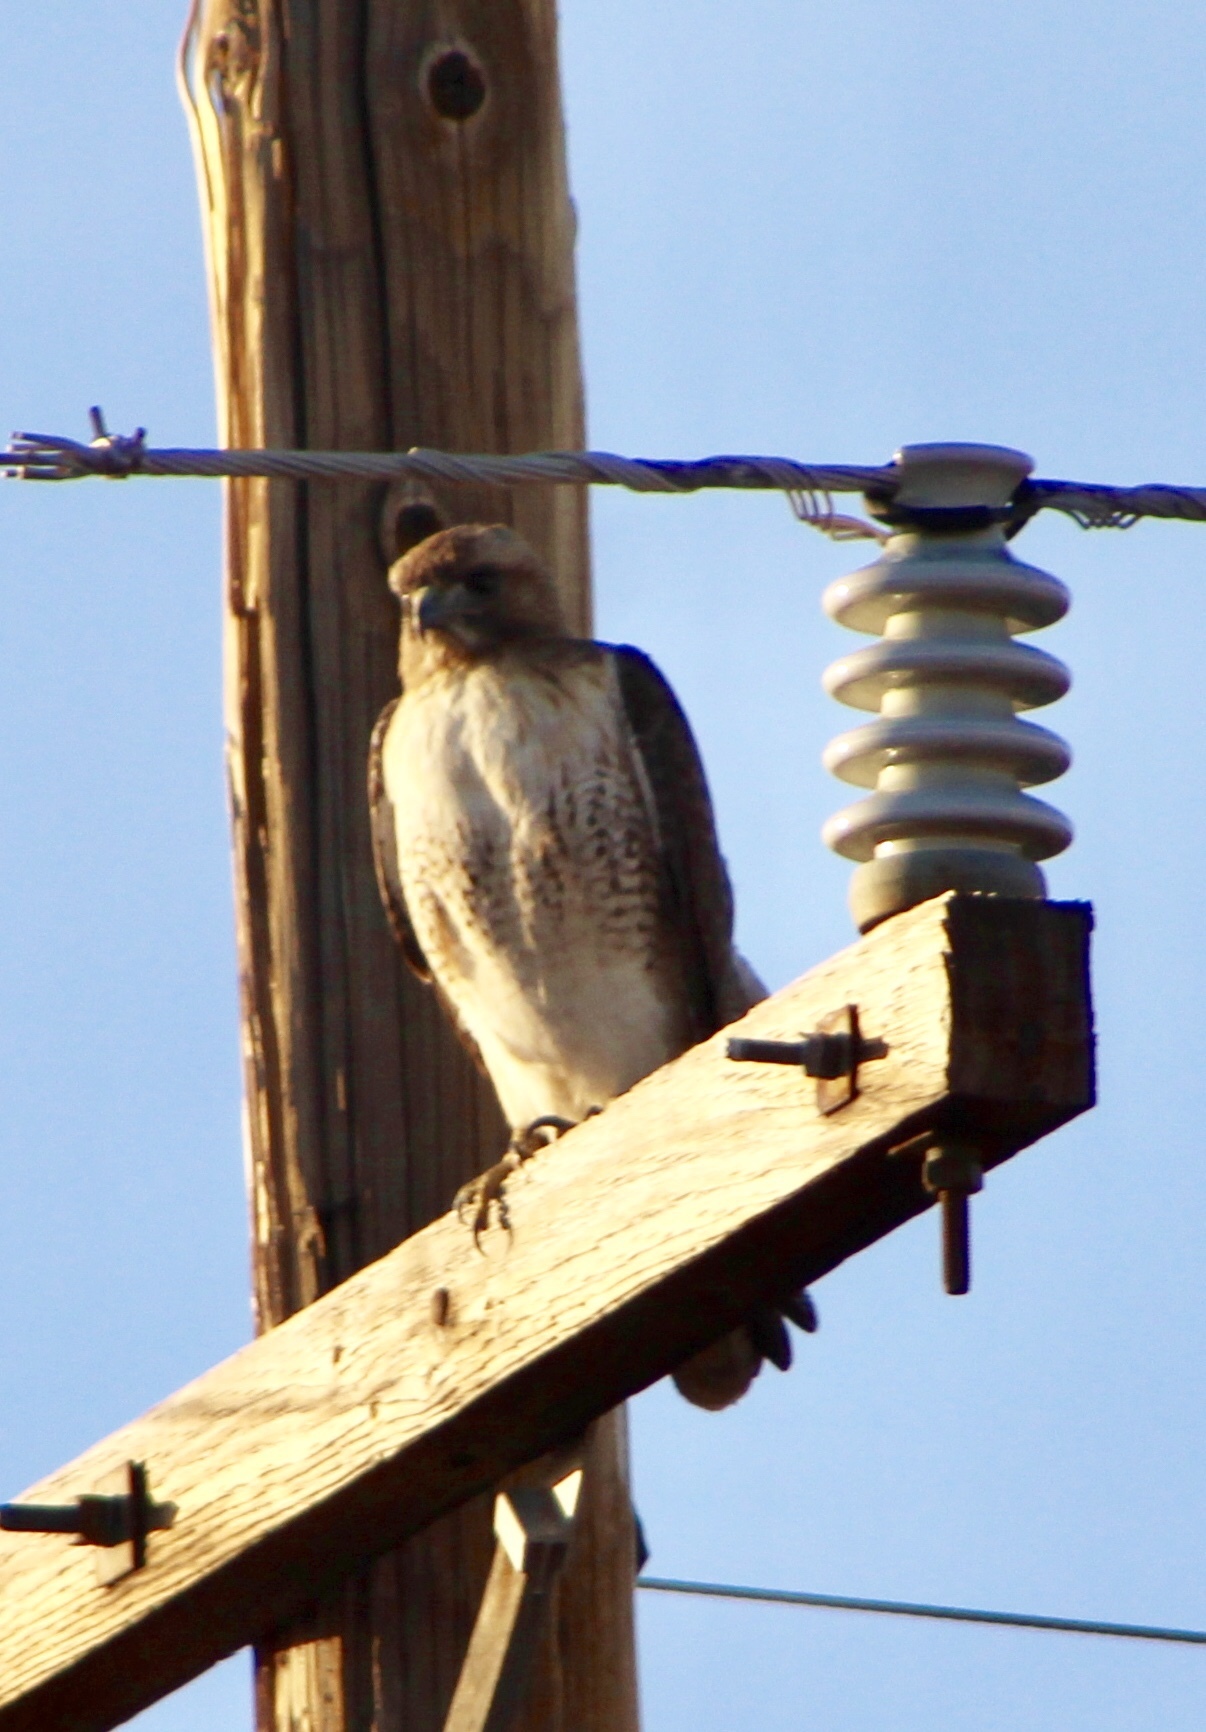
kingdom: Animalia
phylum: Chordata
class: Aves
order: Accipitriformes
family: Accipitridae
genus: Buteo
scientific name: Buteo jamaicensis
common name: Red-tailed hawk
